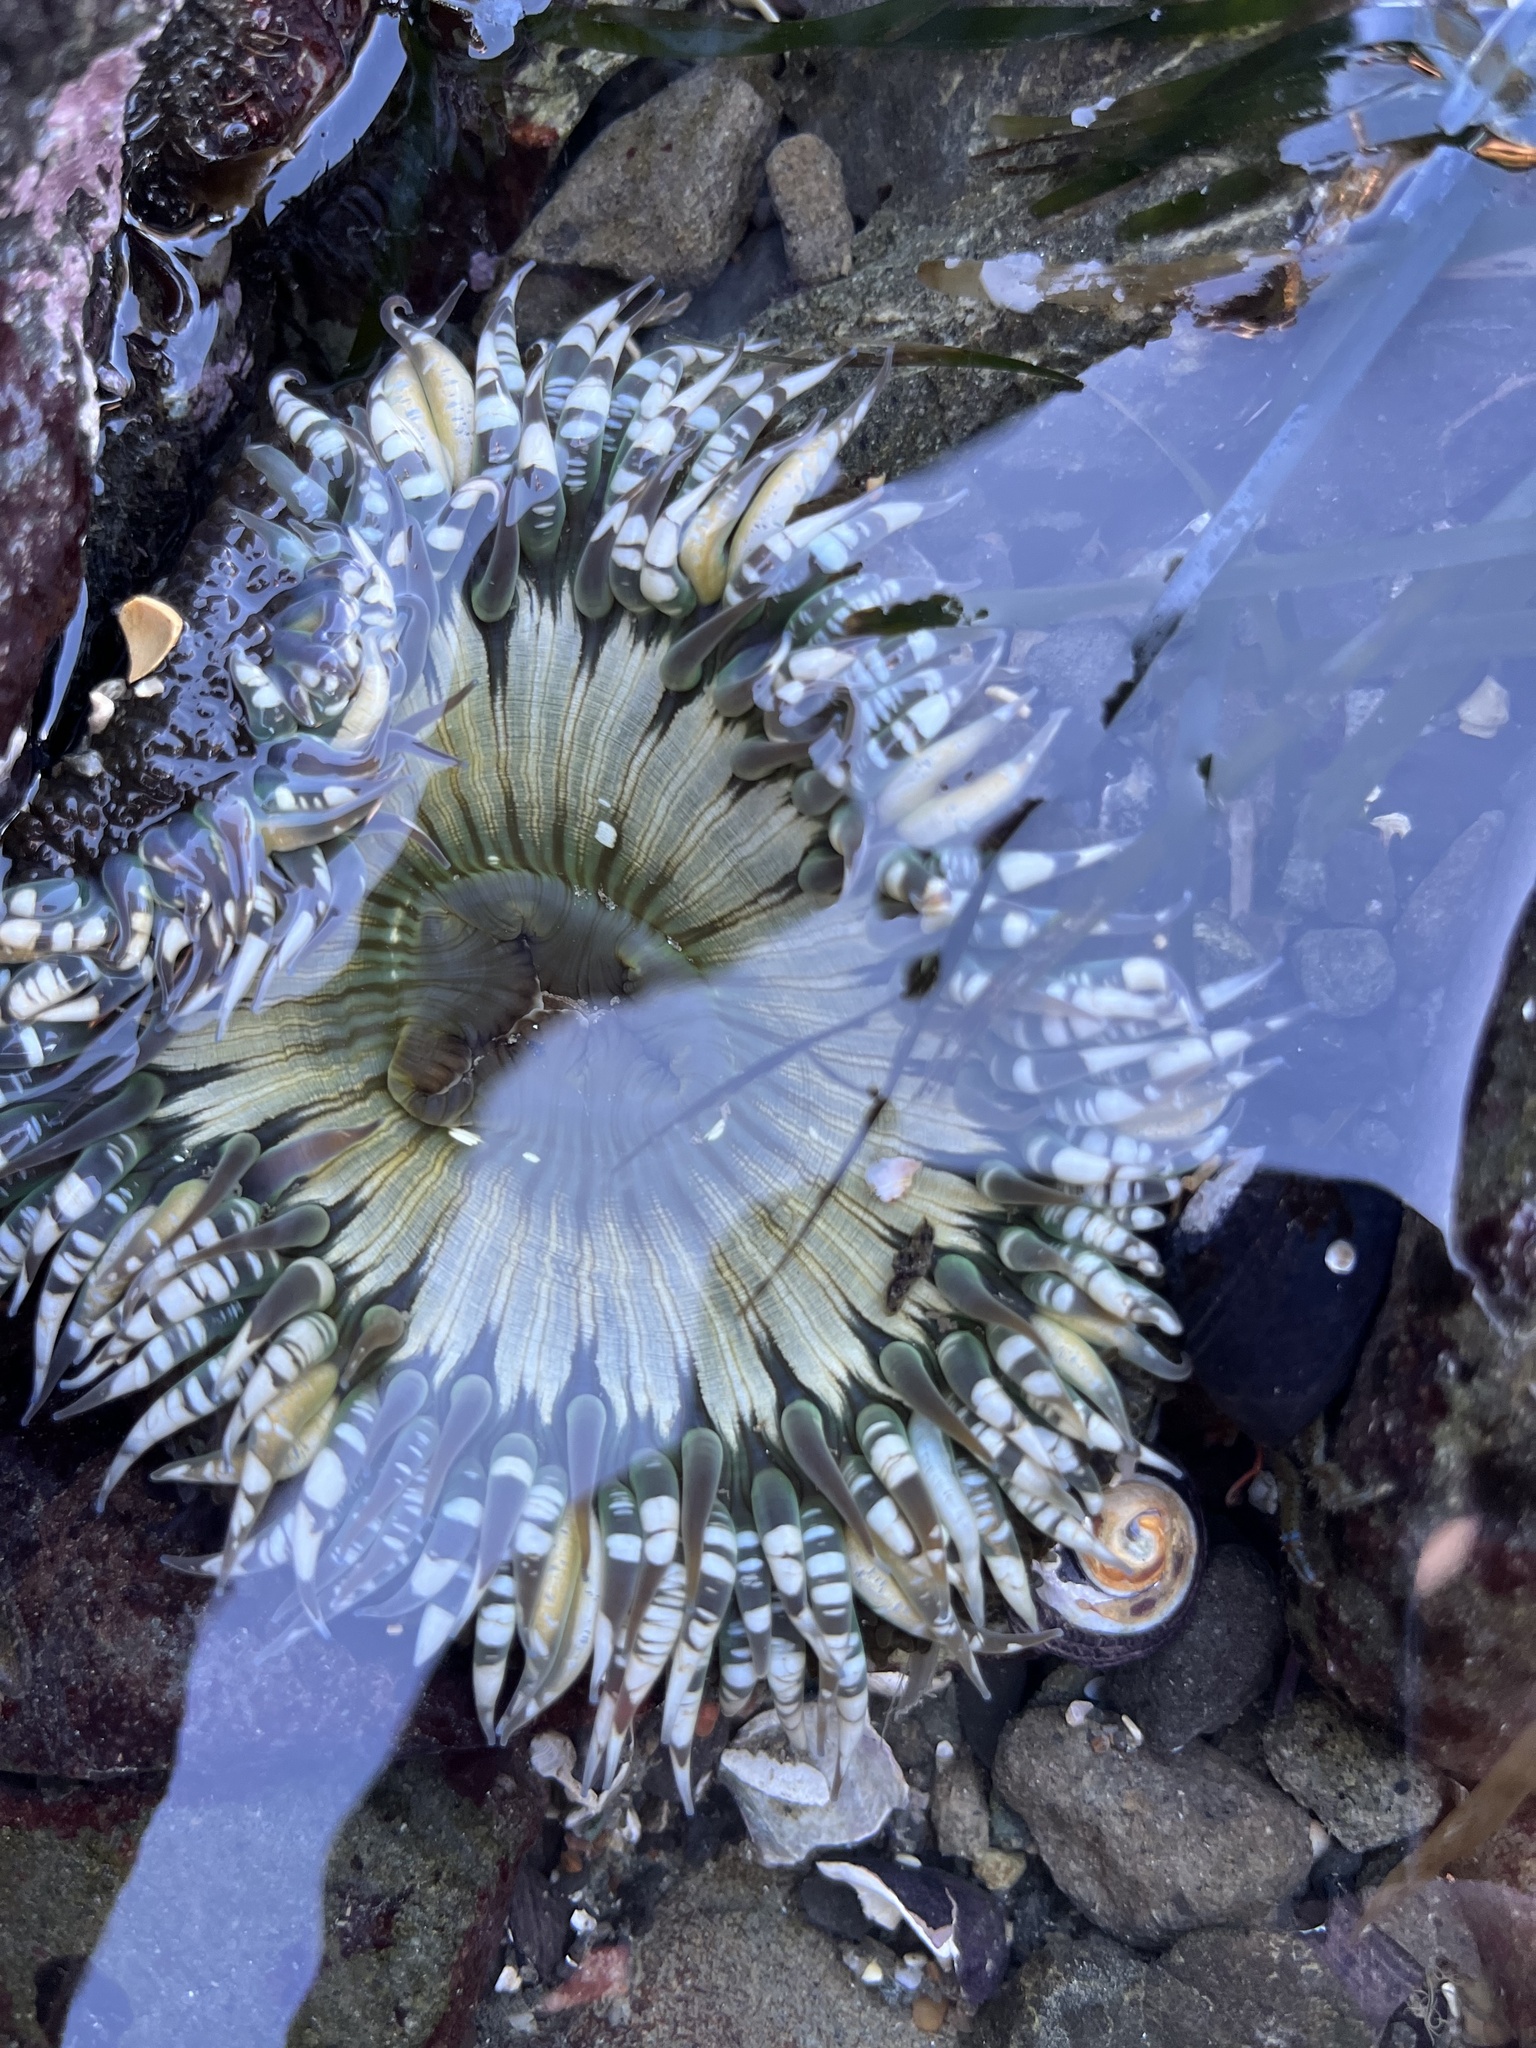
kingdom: Animalia
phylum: Cnidaria
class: Anthozoa
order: Actiniaria
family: Actiniidae
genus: Anthopleura
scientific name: Anthopleura sola
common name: Sun anemone
